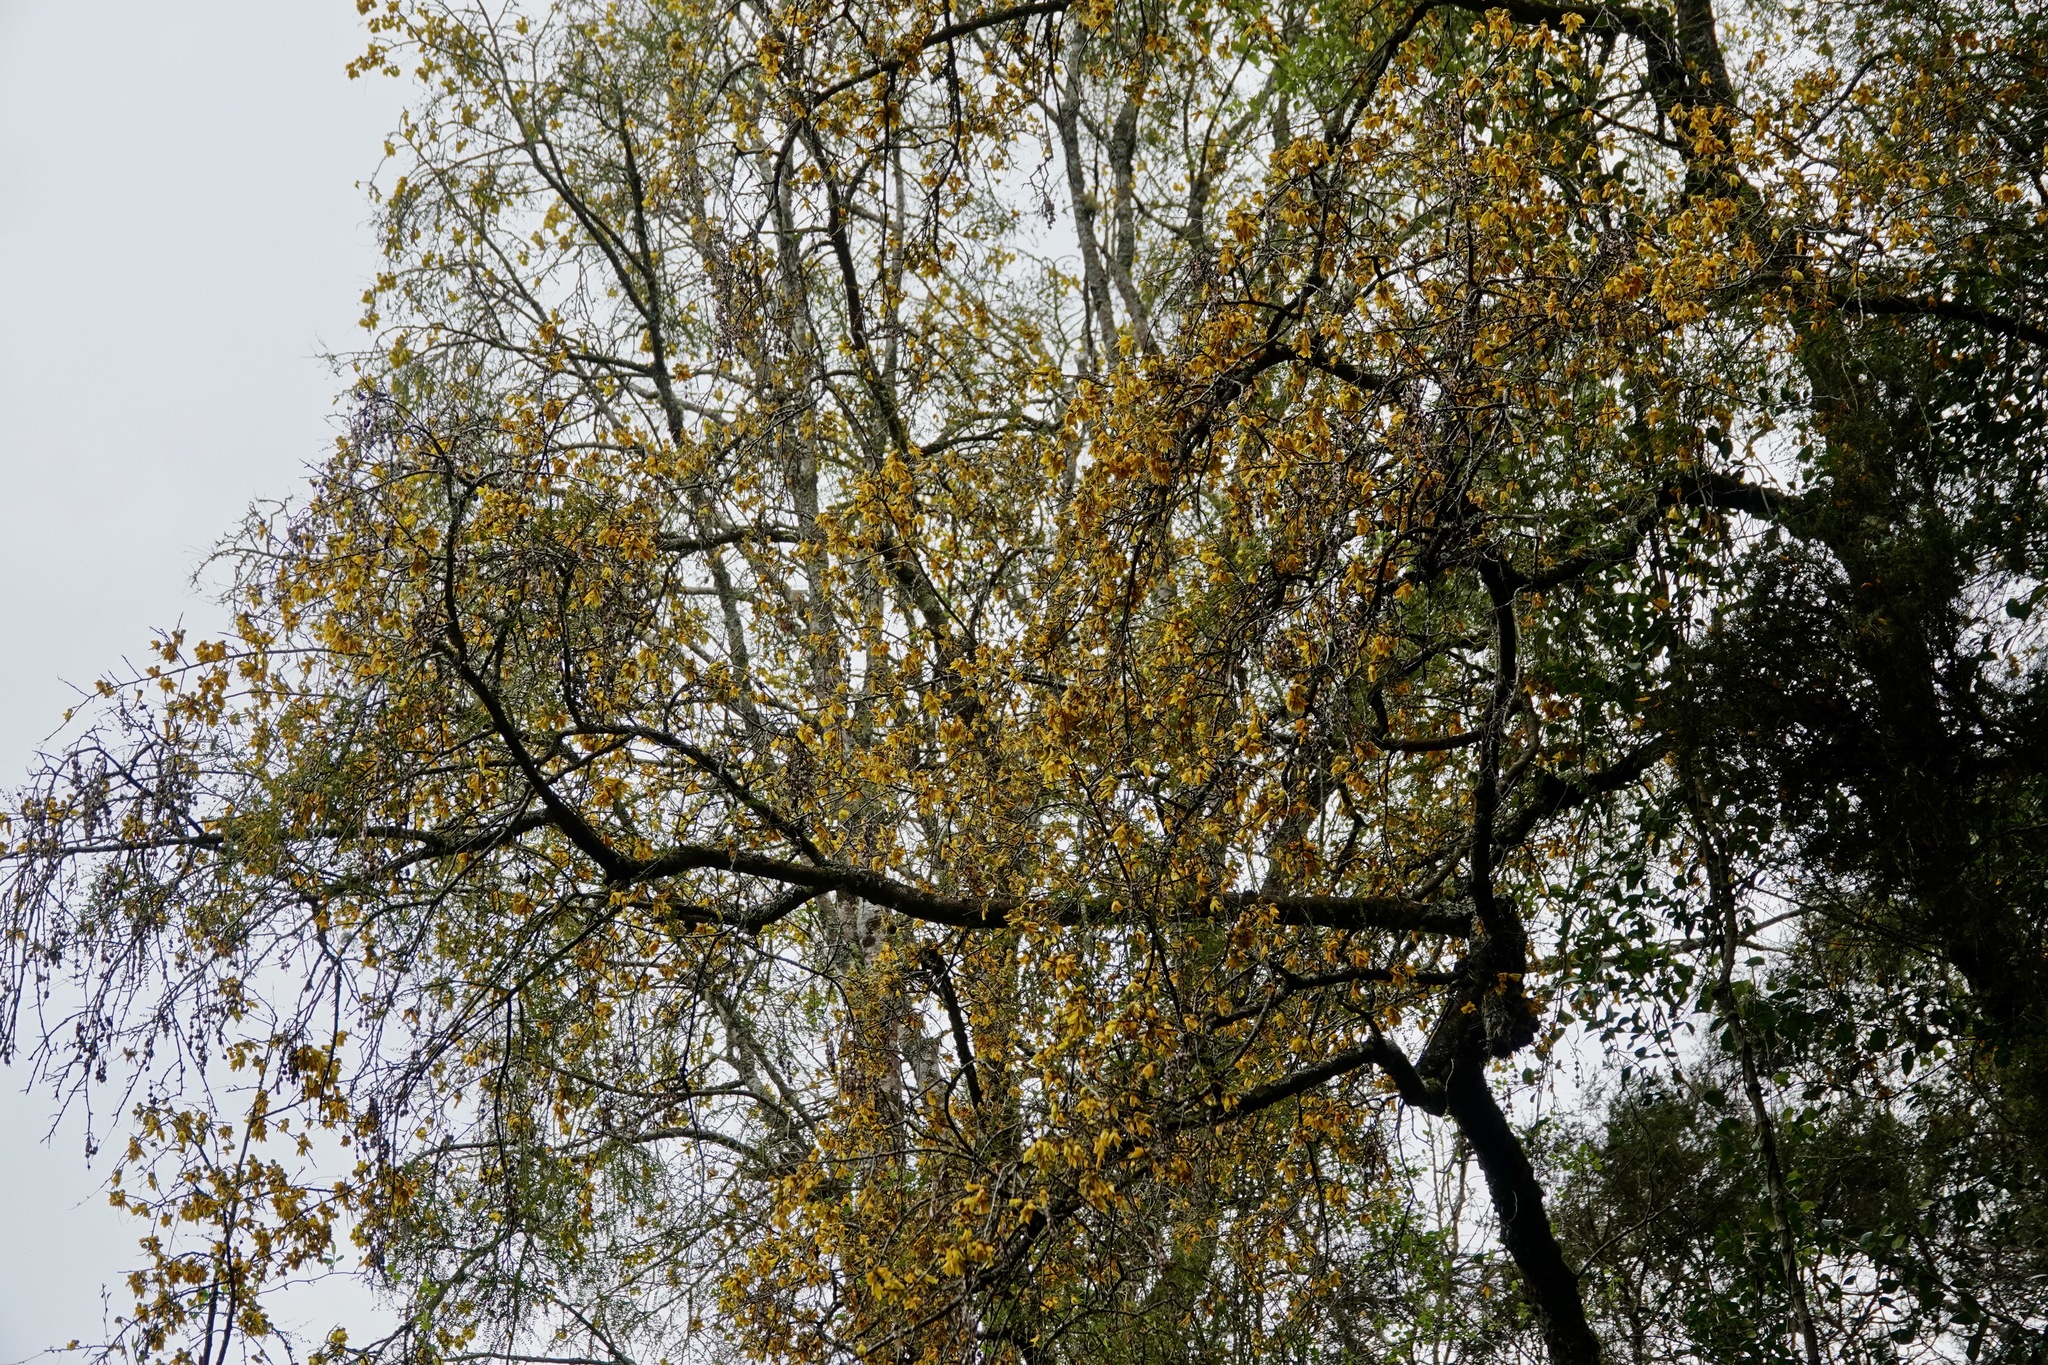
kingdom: Plantae
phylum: Tracheophyta
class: Magnoliopsida
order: Fabales
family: Fabaceae
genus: Sophora
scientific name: Sophora microphylla
